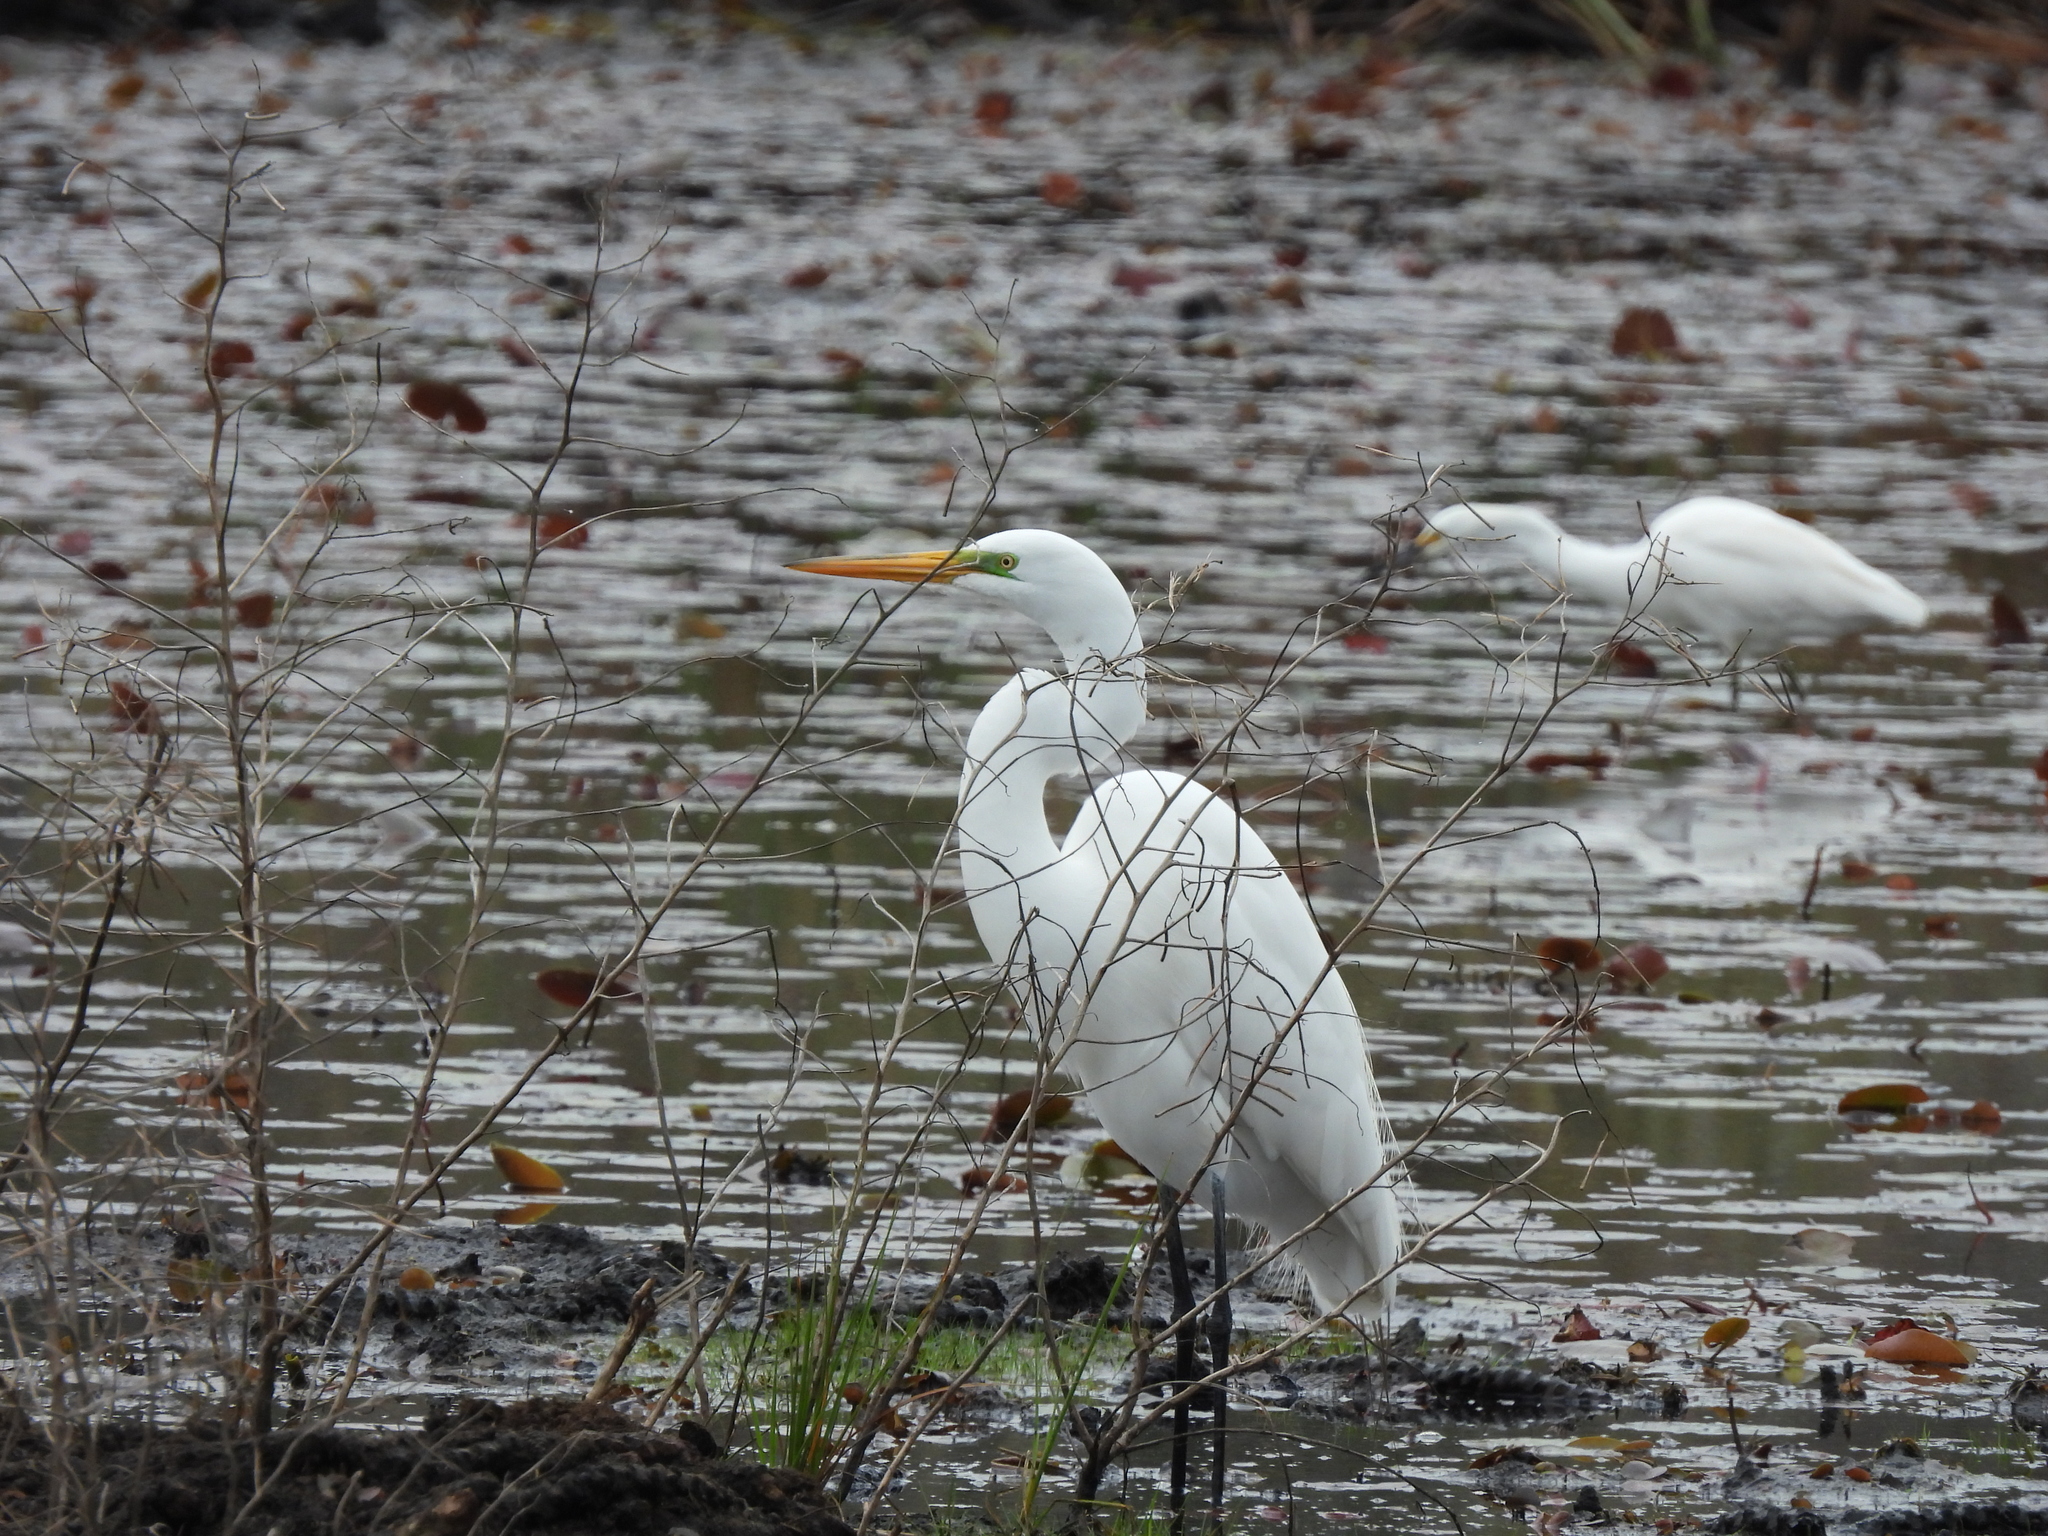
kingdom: Animalia
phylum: Chordata
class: Aves
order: Pelecaniformes
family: Ardeidae
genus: Ardea
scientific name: Ardea alba
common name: Great egret
